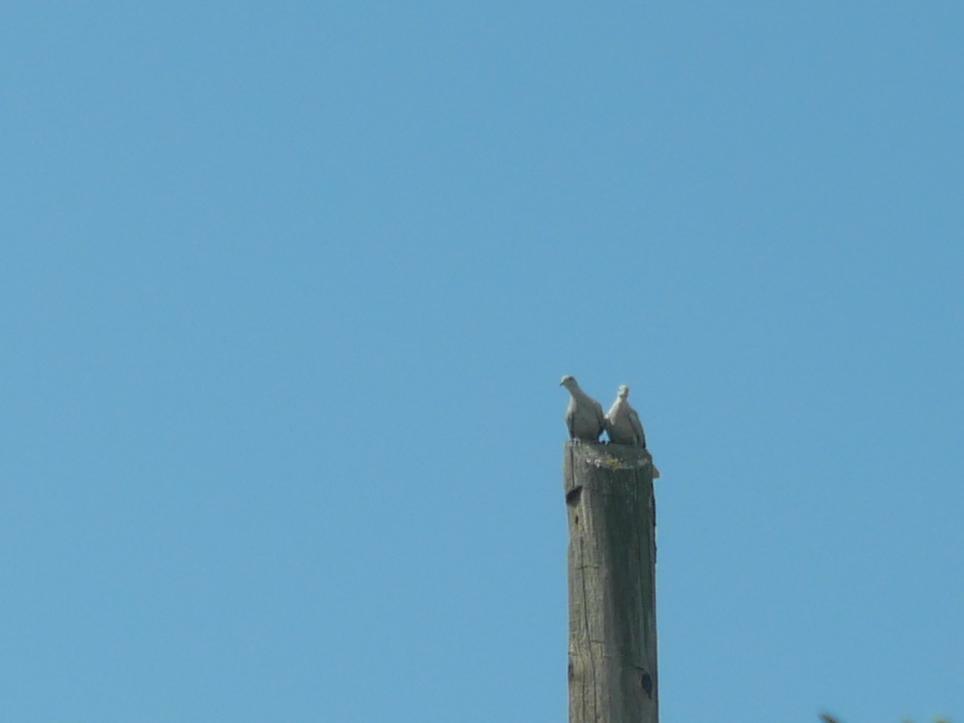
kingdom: Animalia
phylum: Chordata
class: Aves
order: Columbiformes
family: Columbidae
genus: Streptopelia
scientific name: Streptopelia decaocto
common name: Eurasian collared dove
